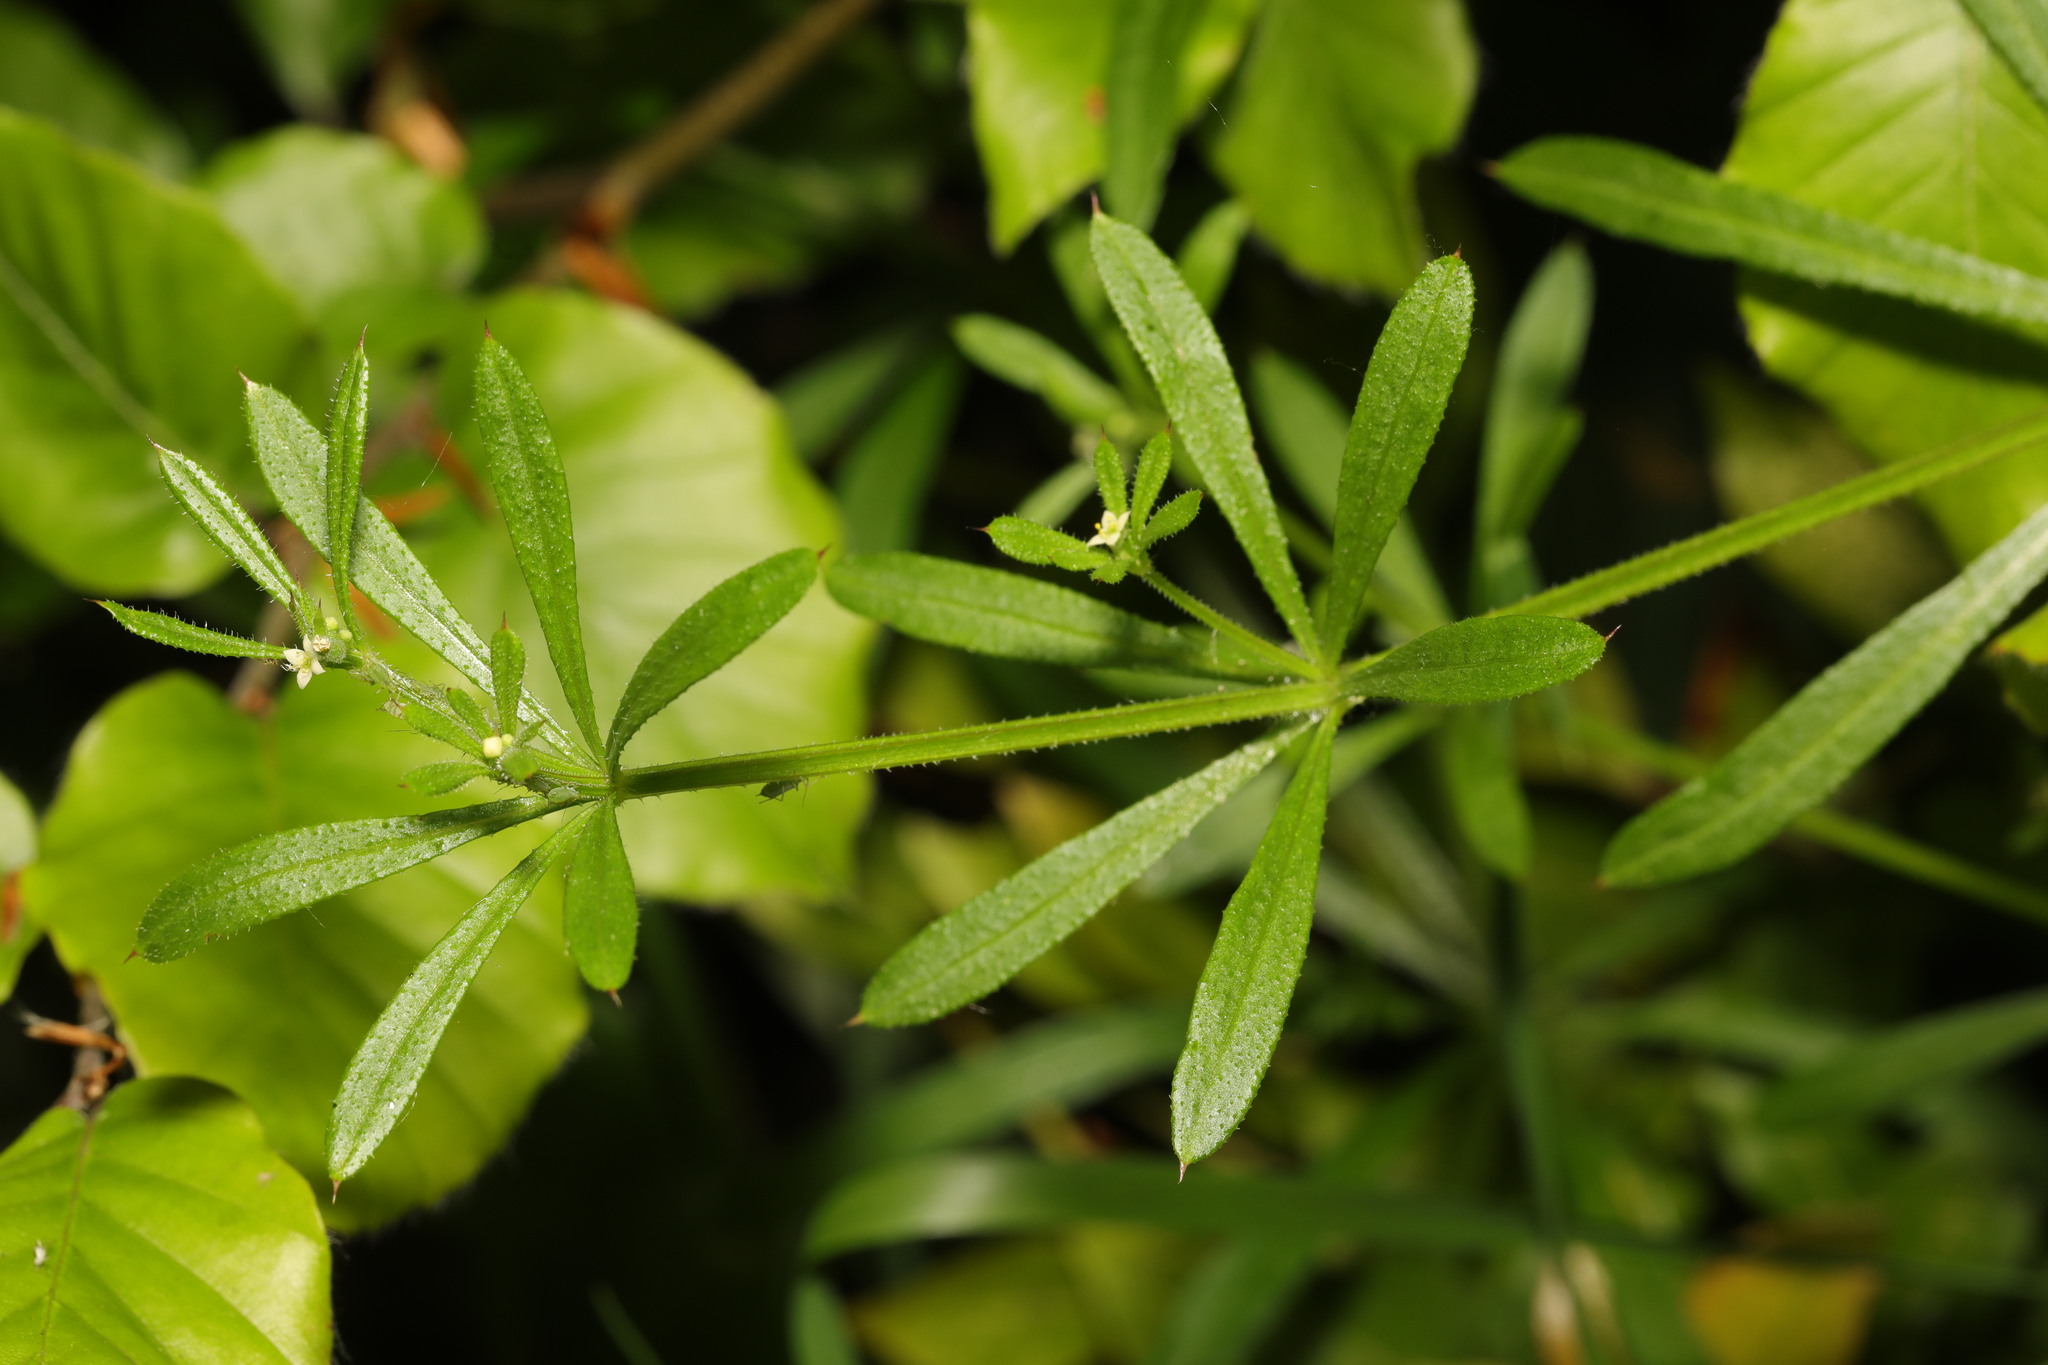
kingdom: Plantae
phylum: Tracheophyta
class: Magnoliopsida
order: Gentianales
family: Rubiaceae
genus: Galium
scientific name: Galium aparine
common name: Cleavers
